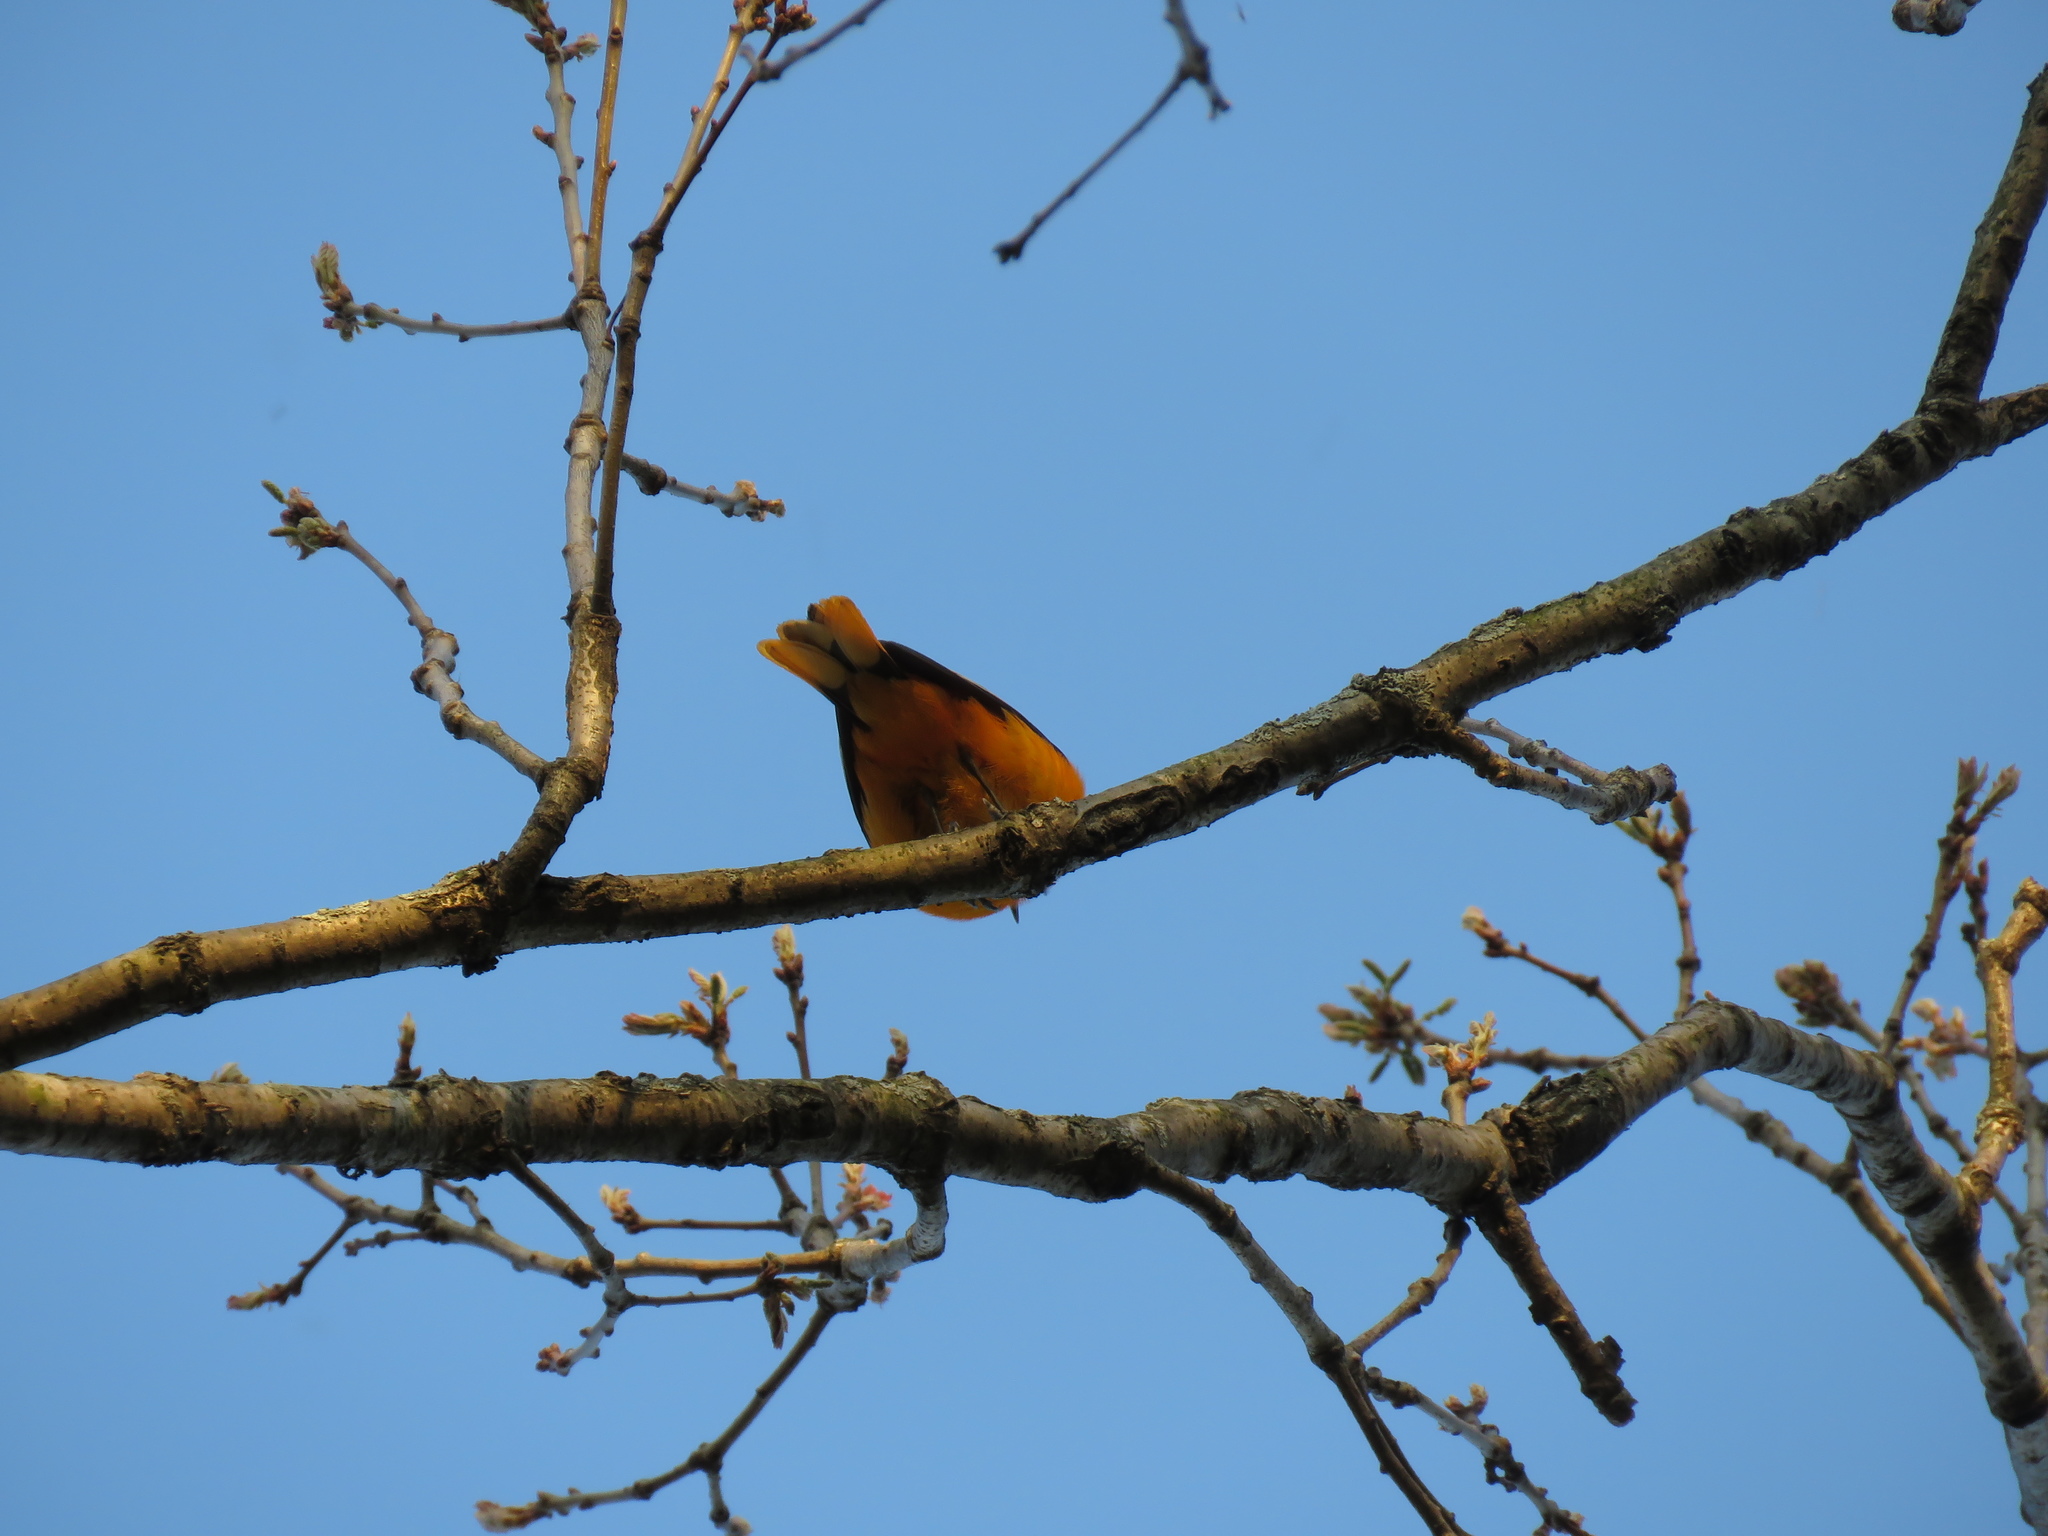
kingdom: Animalia
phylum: Chordata
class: Aves
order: Passeriformes
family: Icteridae
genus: Icterus
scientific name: Icterus galbula
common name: Baltimore oriole
